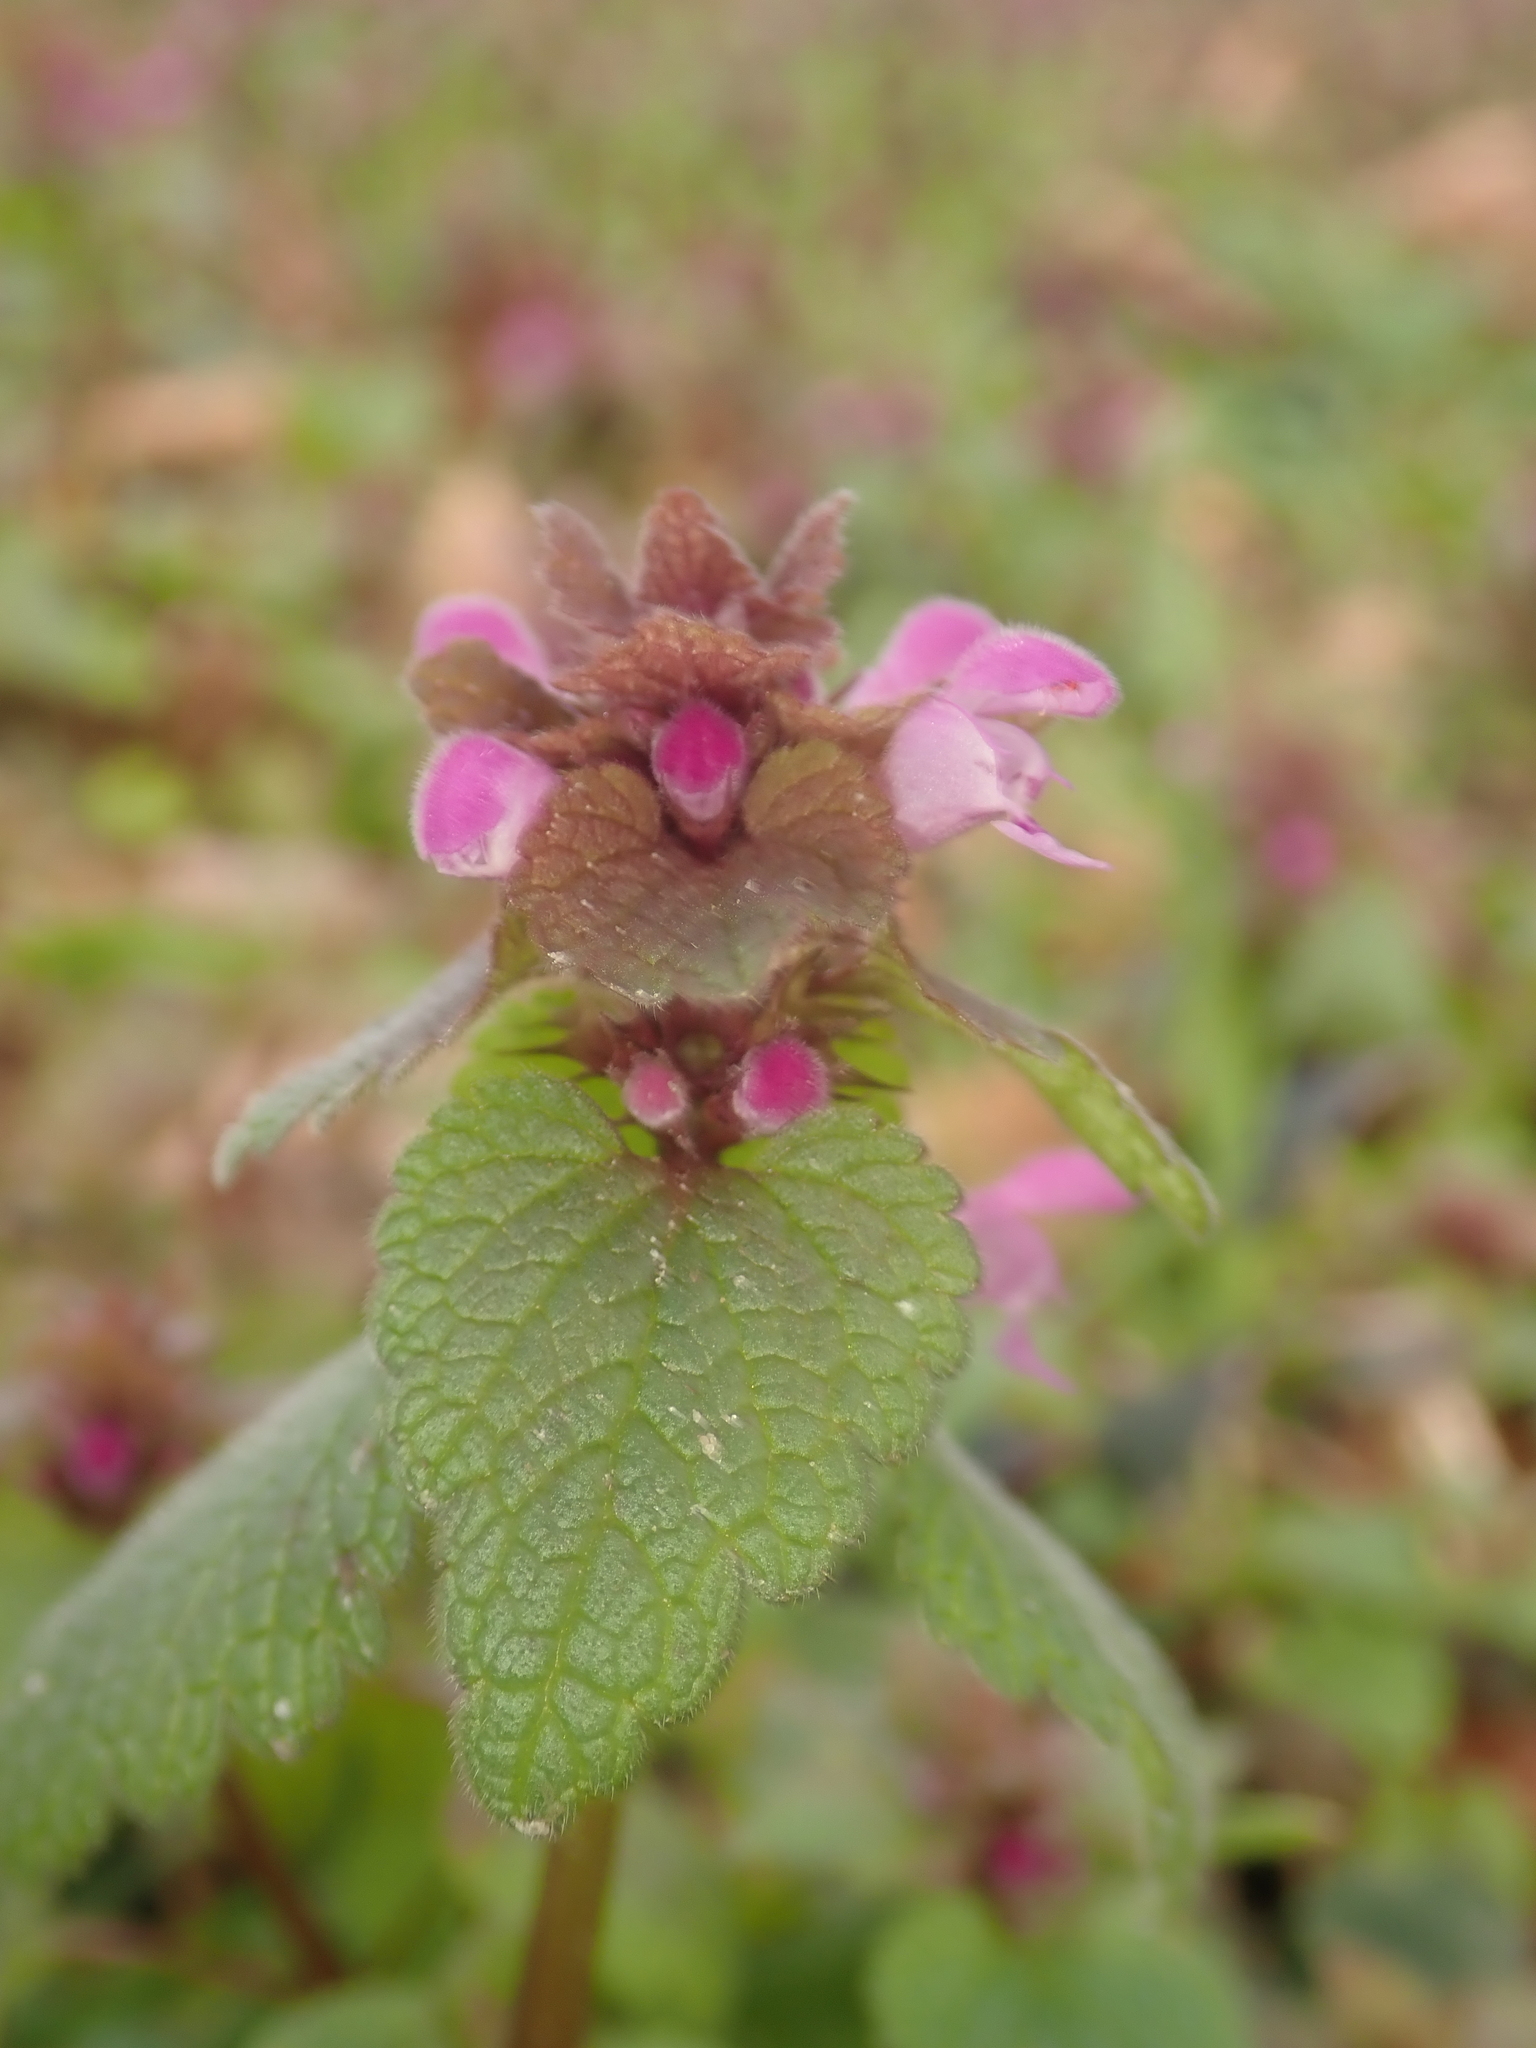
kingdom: Plantae
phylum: Tracheophyta
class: Magnoliopsida
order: Lamiales
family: Lamiaceae
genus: Lamium
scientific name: Lamium purpureum
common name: Red dead-nettle
